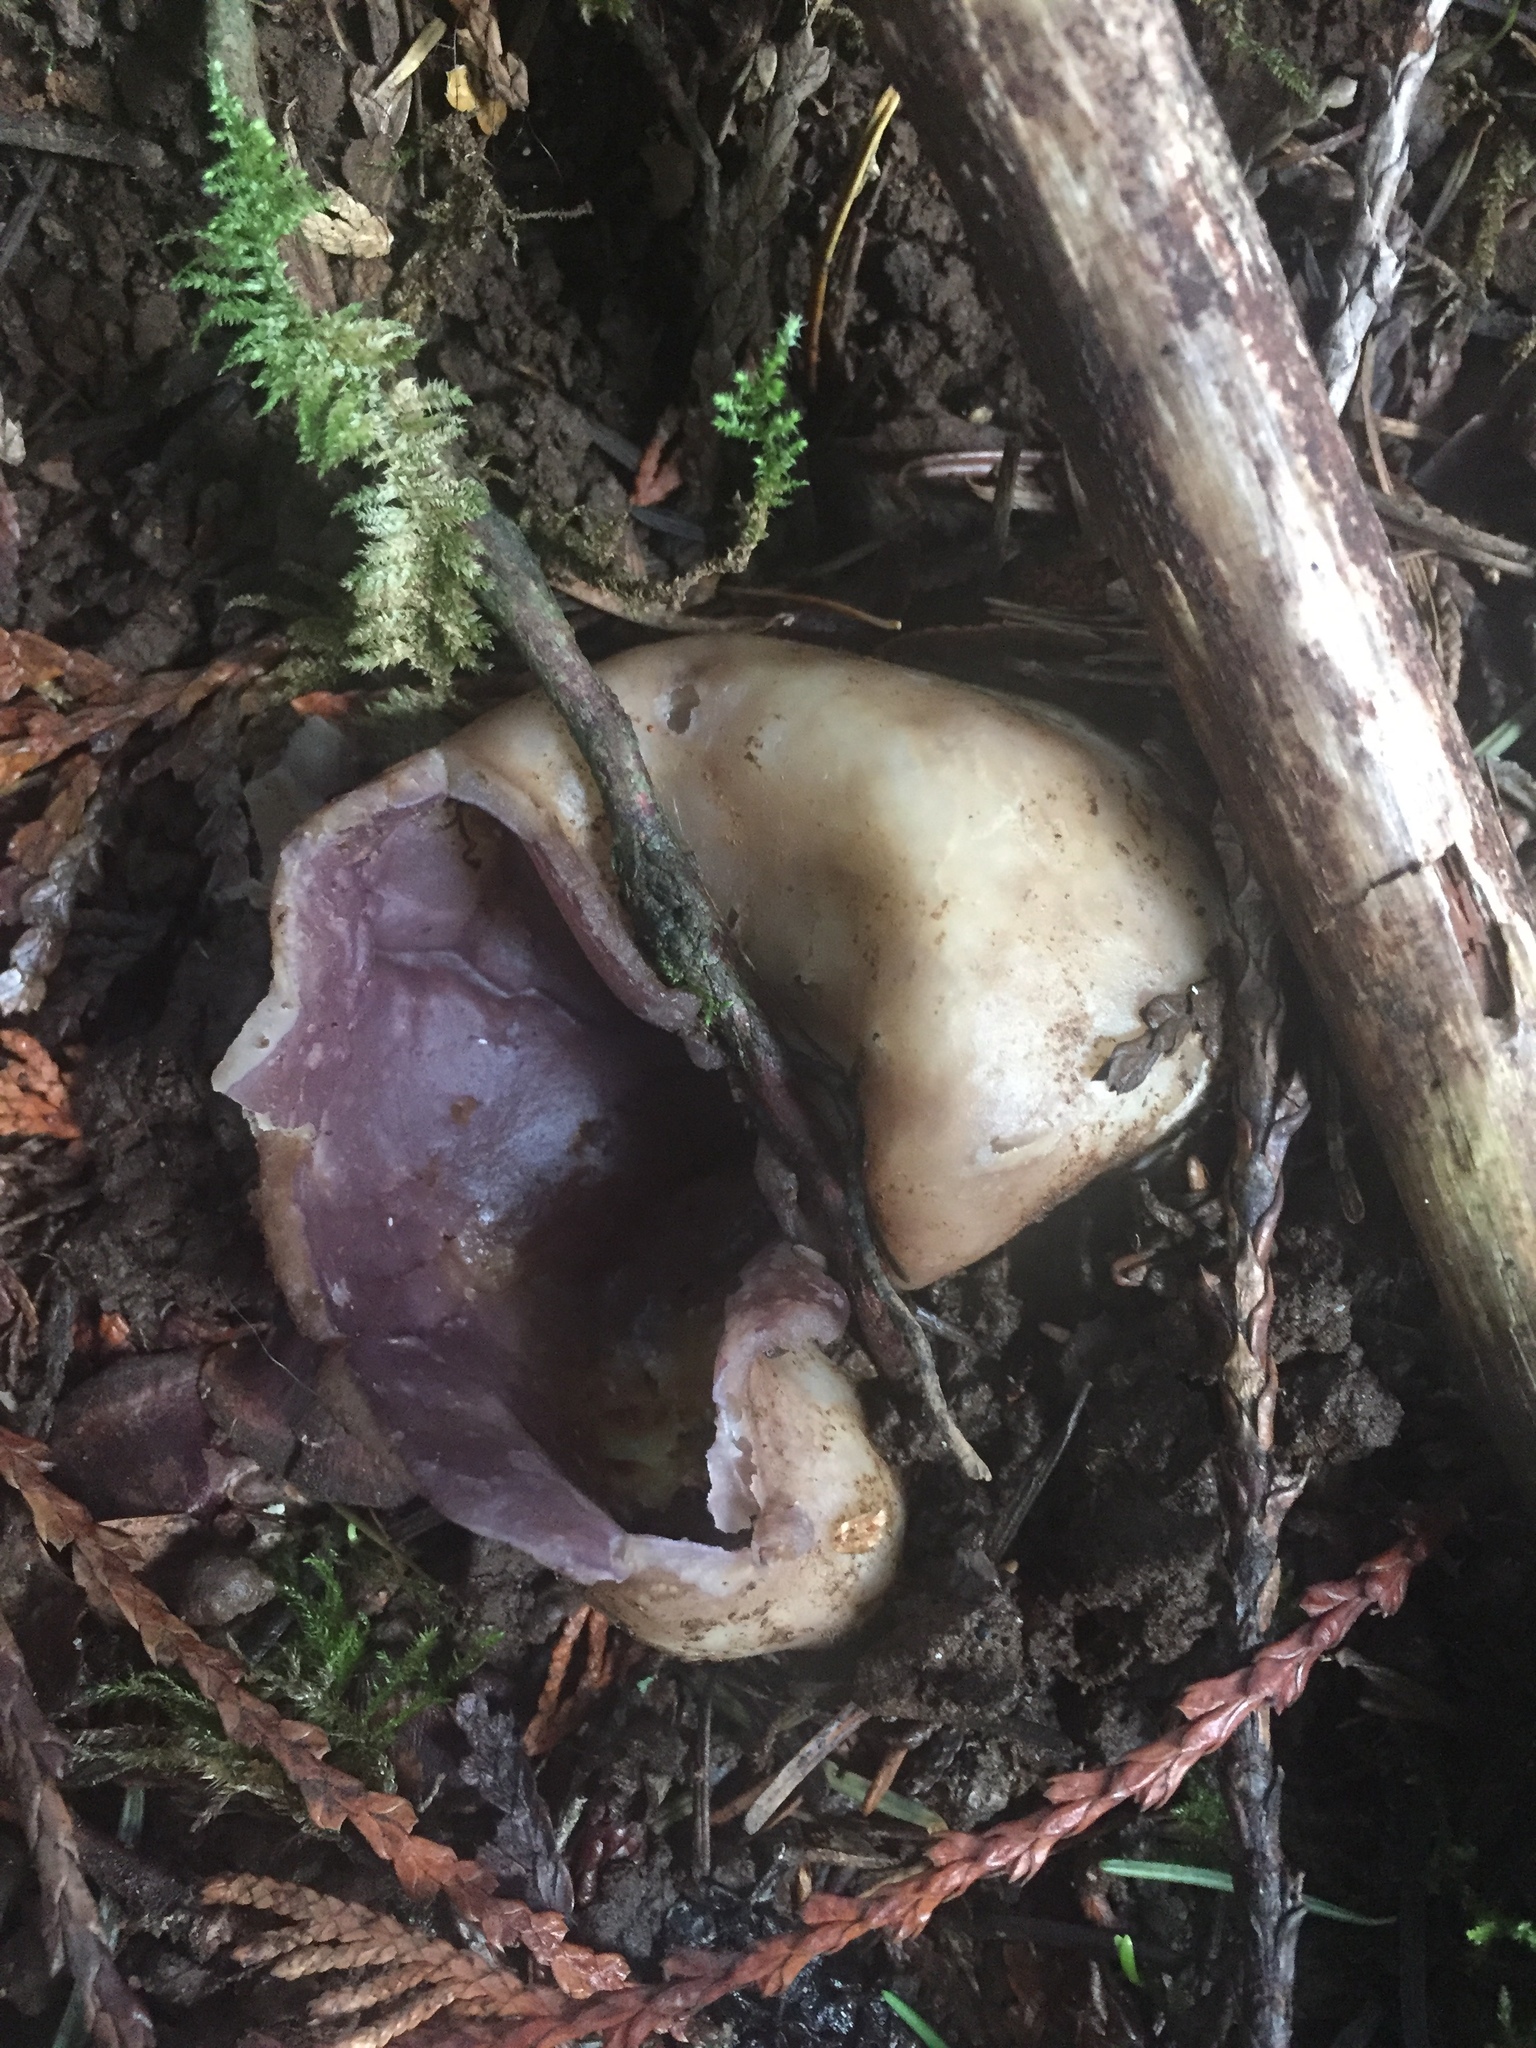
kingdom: Fungi
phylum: Ascomycota
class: Pezizomycetes
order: Pezizales
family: Pezizaceae
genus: Sarcosphaera
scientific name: Sarcosphaera coronaria
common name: Violet crowncup
